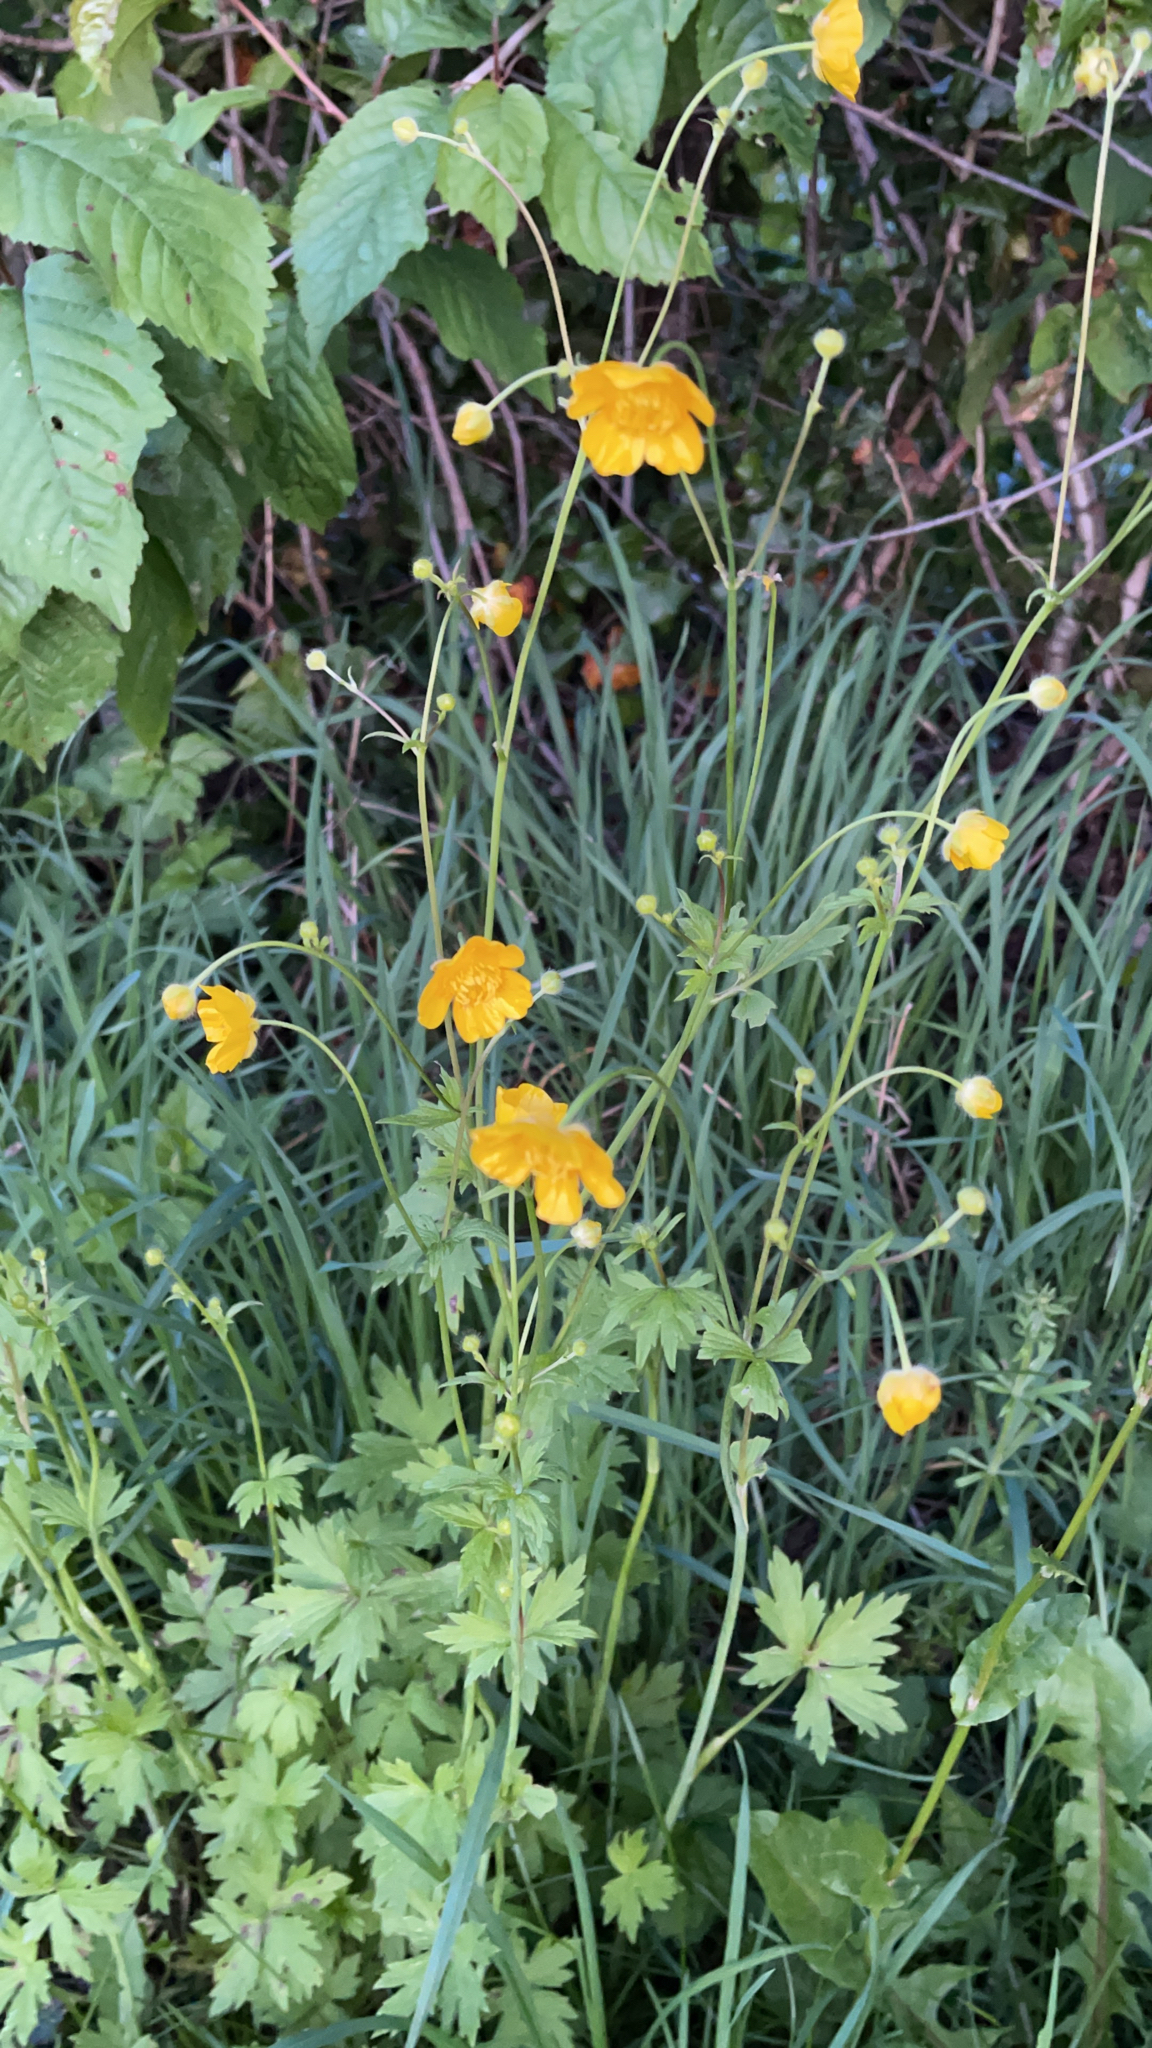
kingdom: Plantae
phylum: Tracheophyta
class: Magnoliopsida
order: Ranunculales
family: Ranunculaceae
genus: Ranunculus
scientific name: Ranunculus acris
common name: Meadow buttercup
